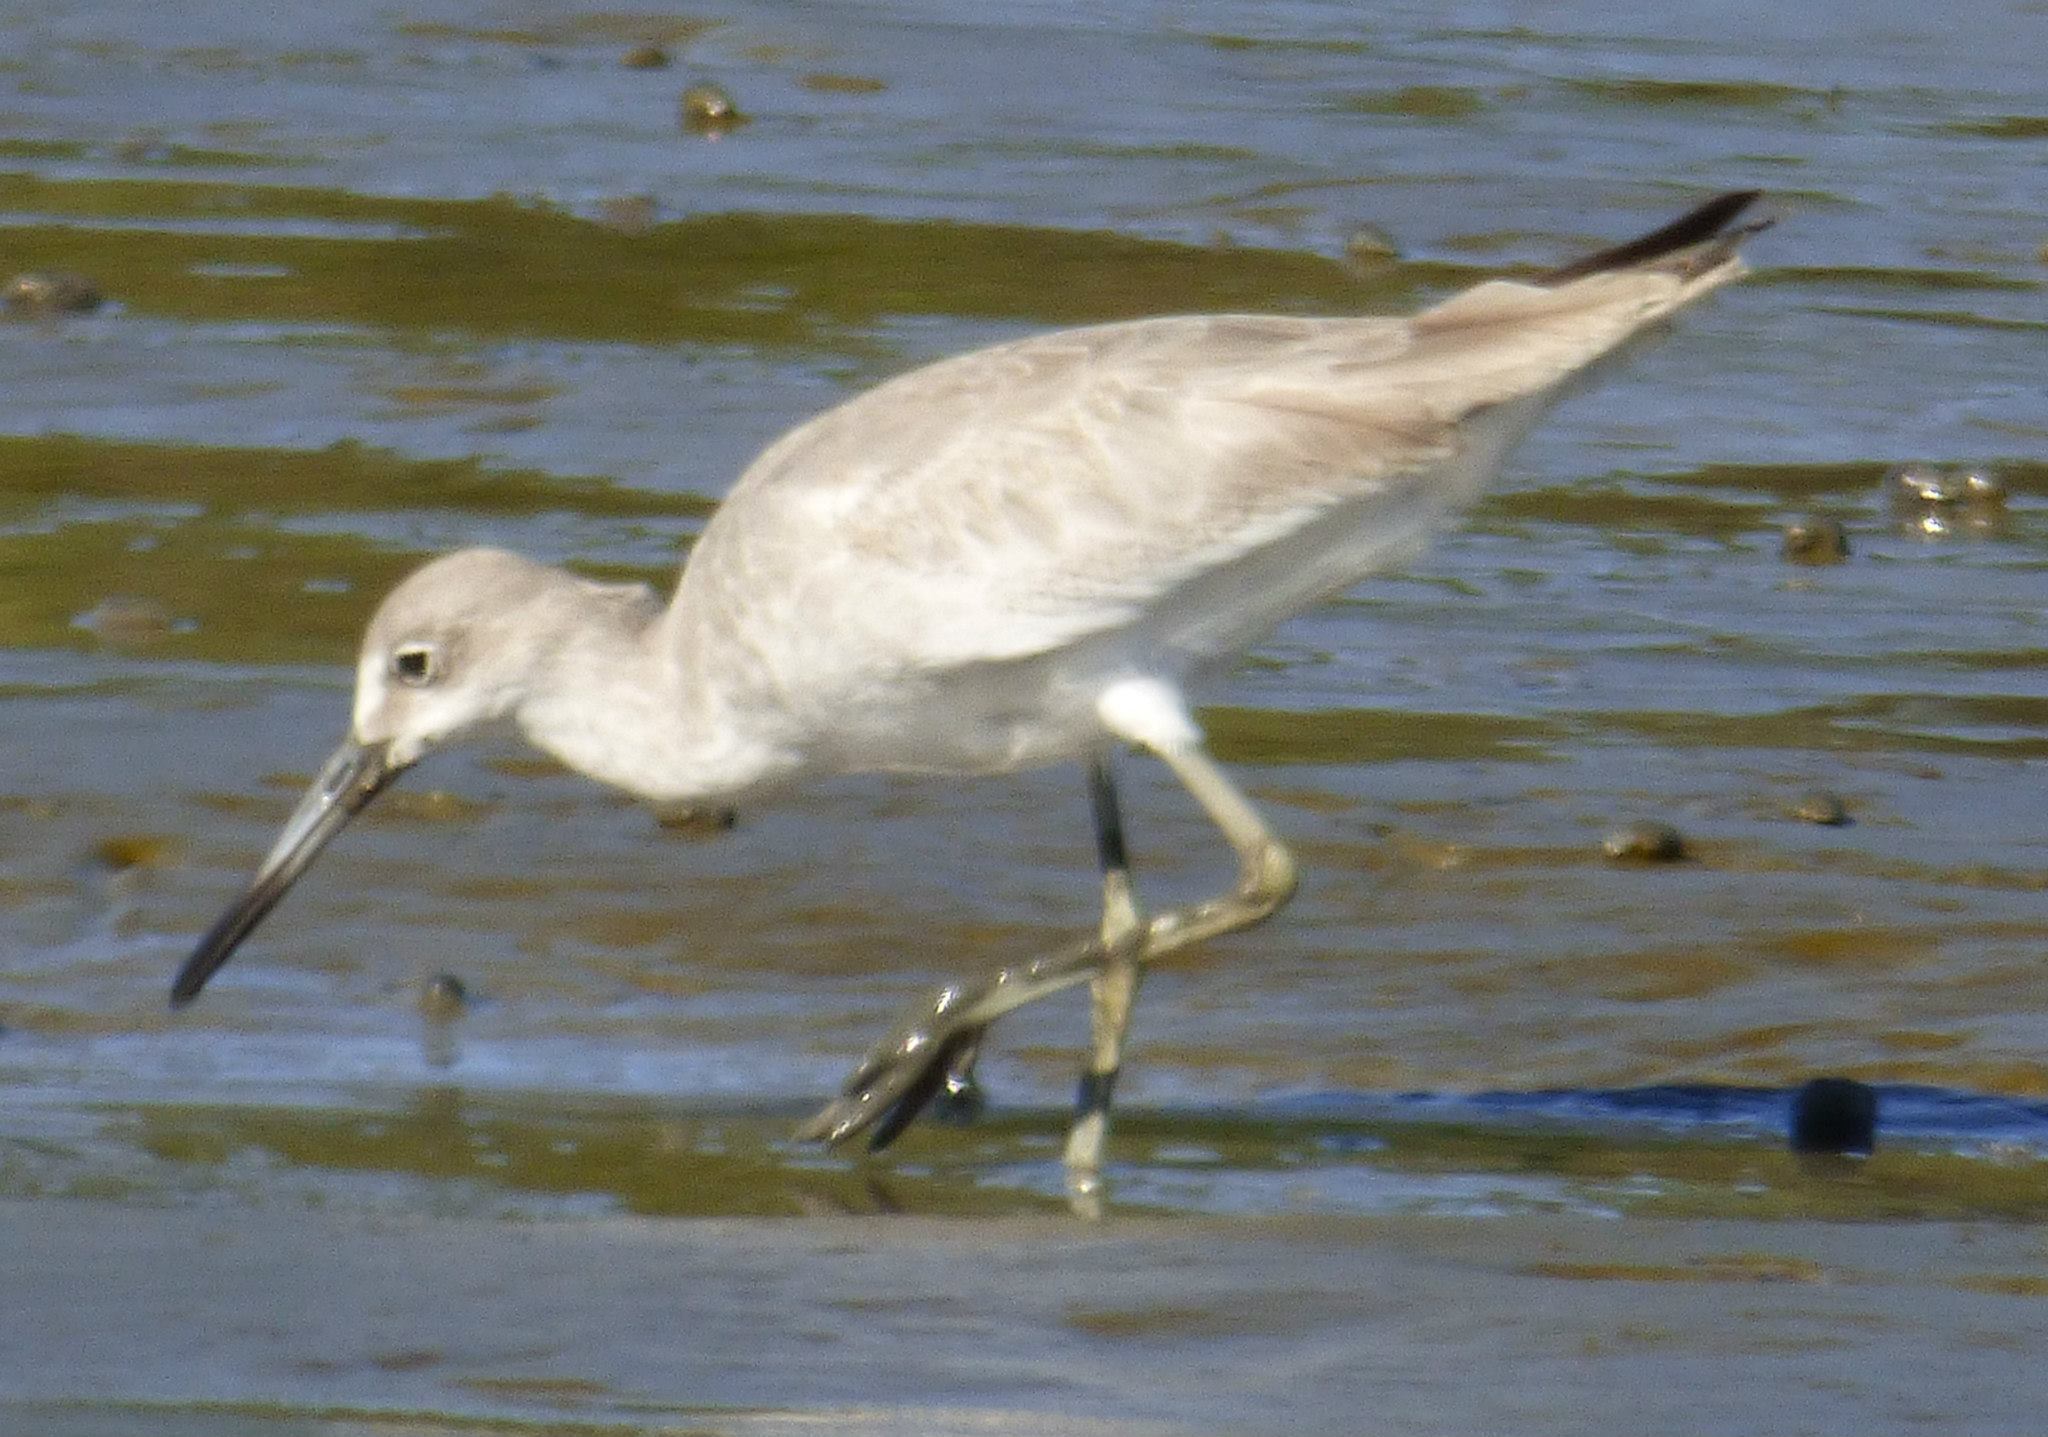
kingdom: Animalia
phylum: Chordata
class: Aves
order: Charadriiformes
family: Scolopacidae
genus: Tringa
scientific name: Tringa semipalmata
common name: Willet
